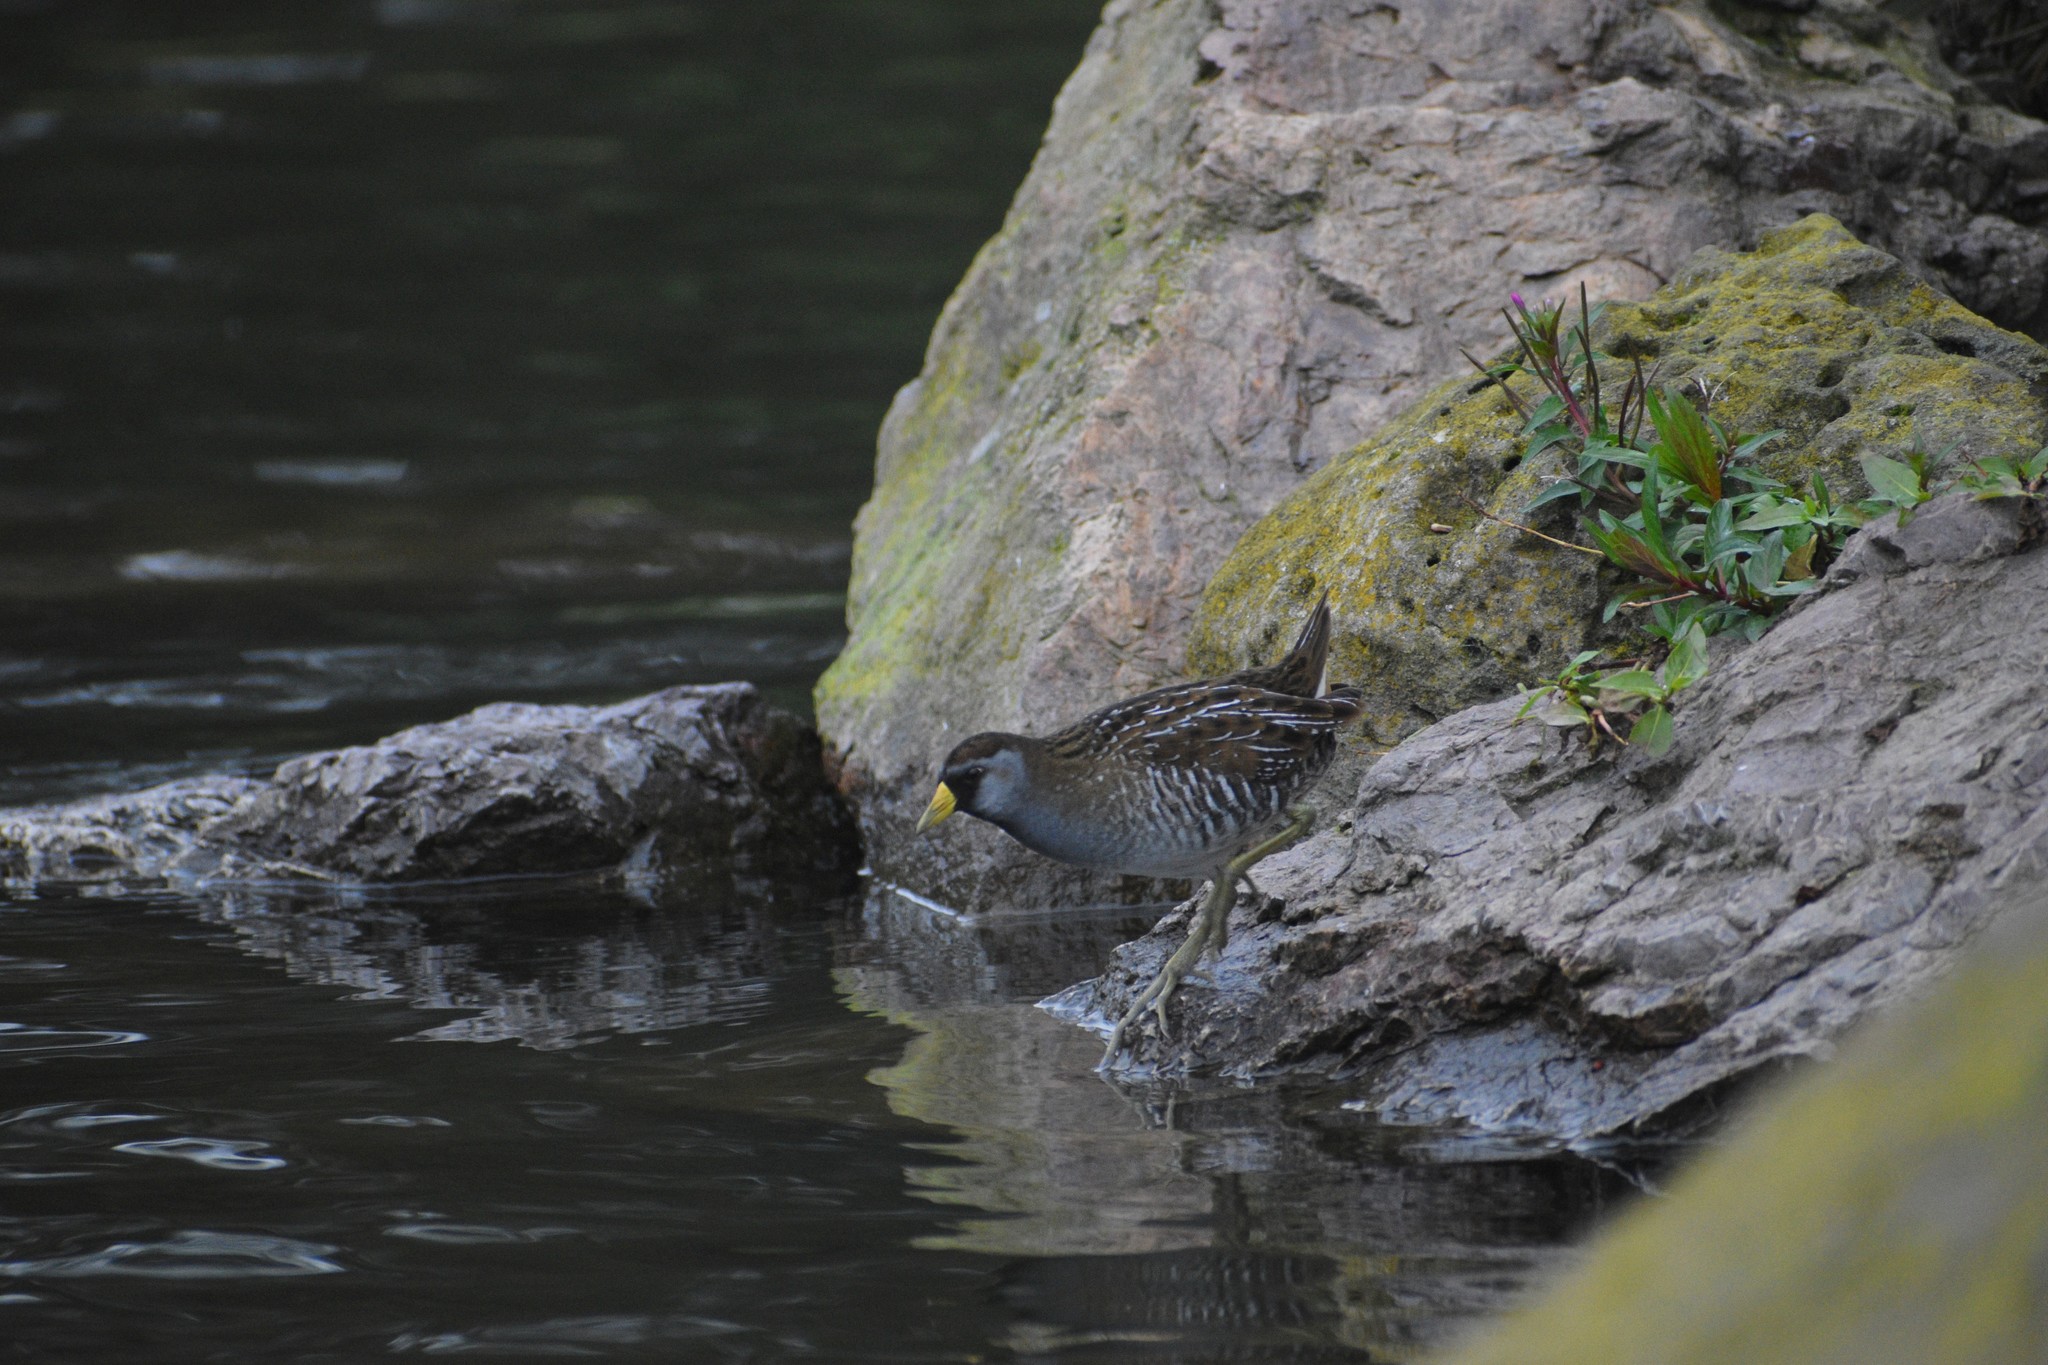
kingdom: Animalia
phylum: Chordata
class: Aves
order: Gruiformes
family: Rallidae
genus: Porzana
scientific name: Porzana carolina
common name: Sora
